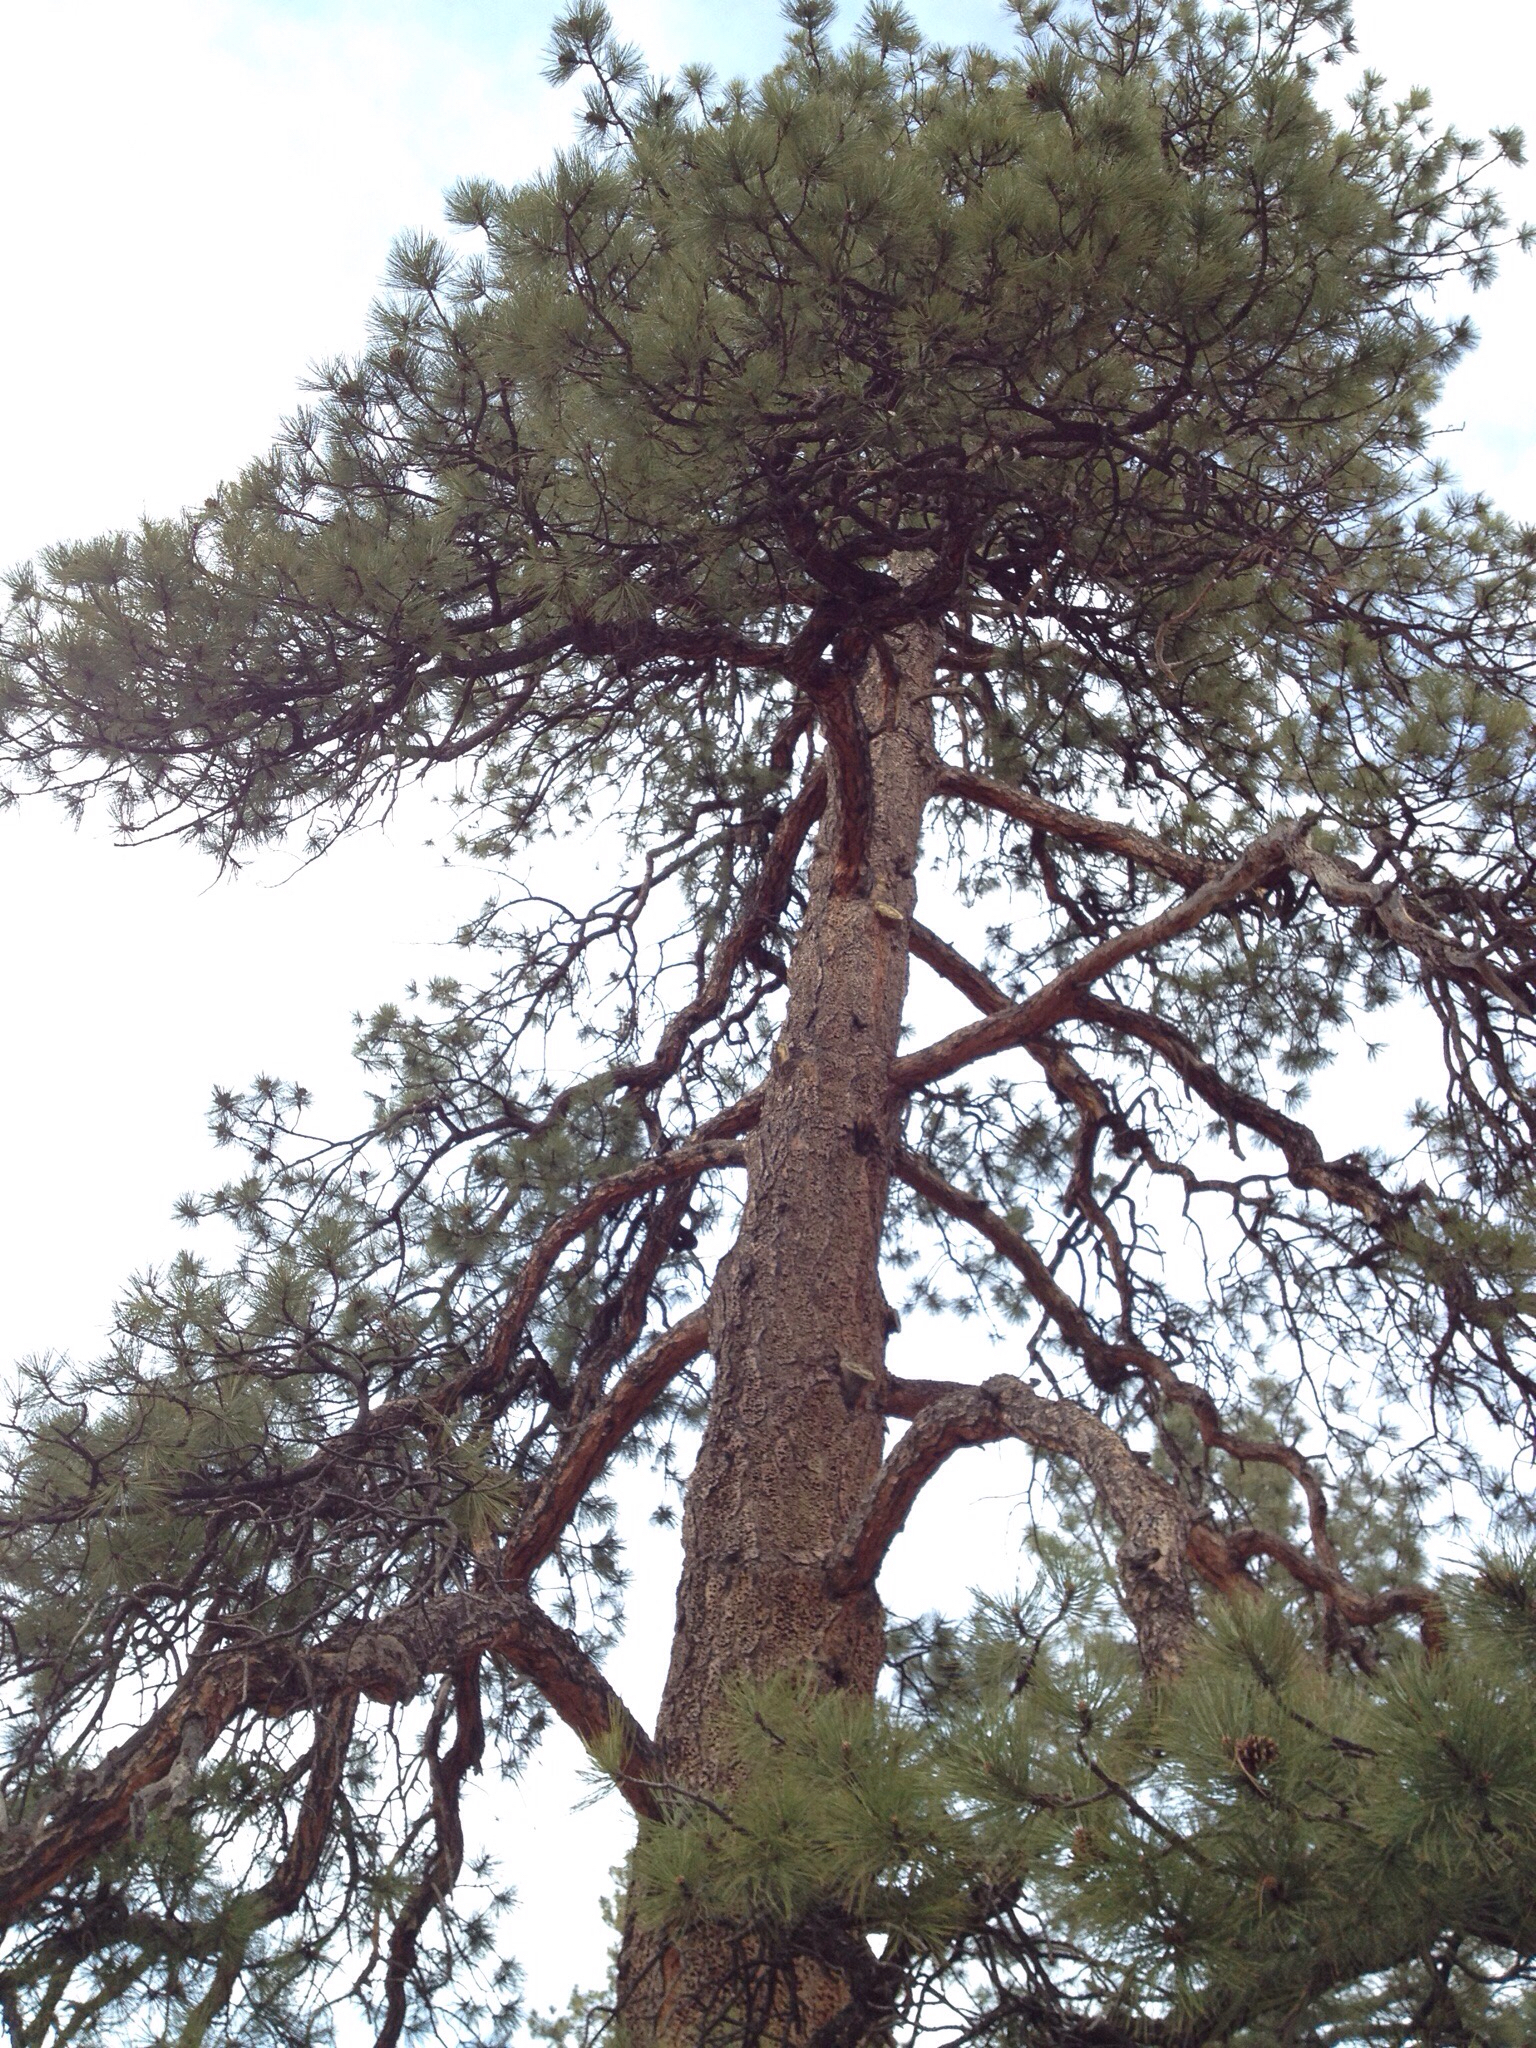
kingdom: Plantae
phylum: Tracheophyta
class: Pinopsida
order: Pinales
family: Pinaceae
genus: Pinus
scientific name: Pinus ponderosa
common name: Western yellow-pine
